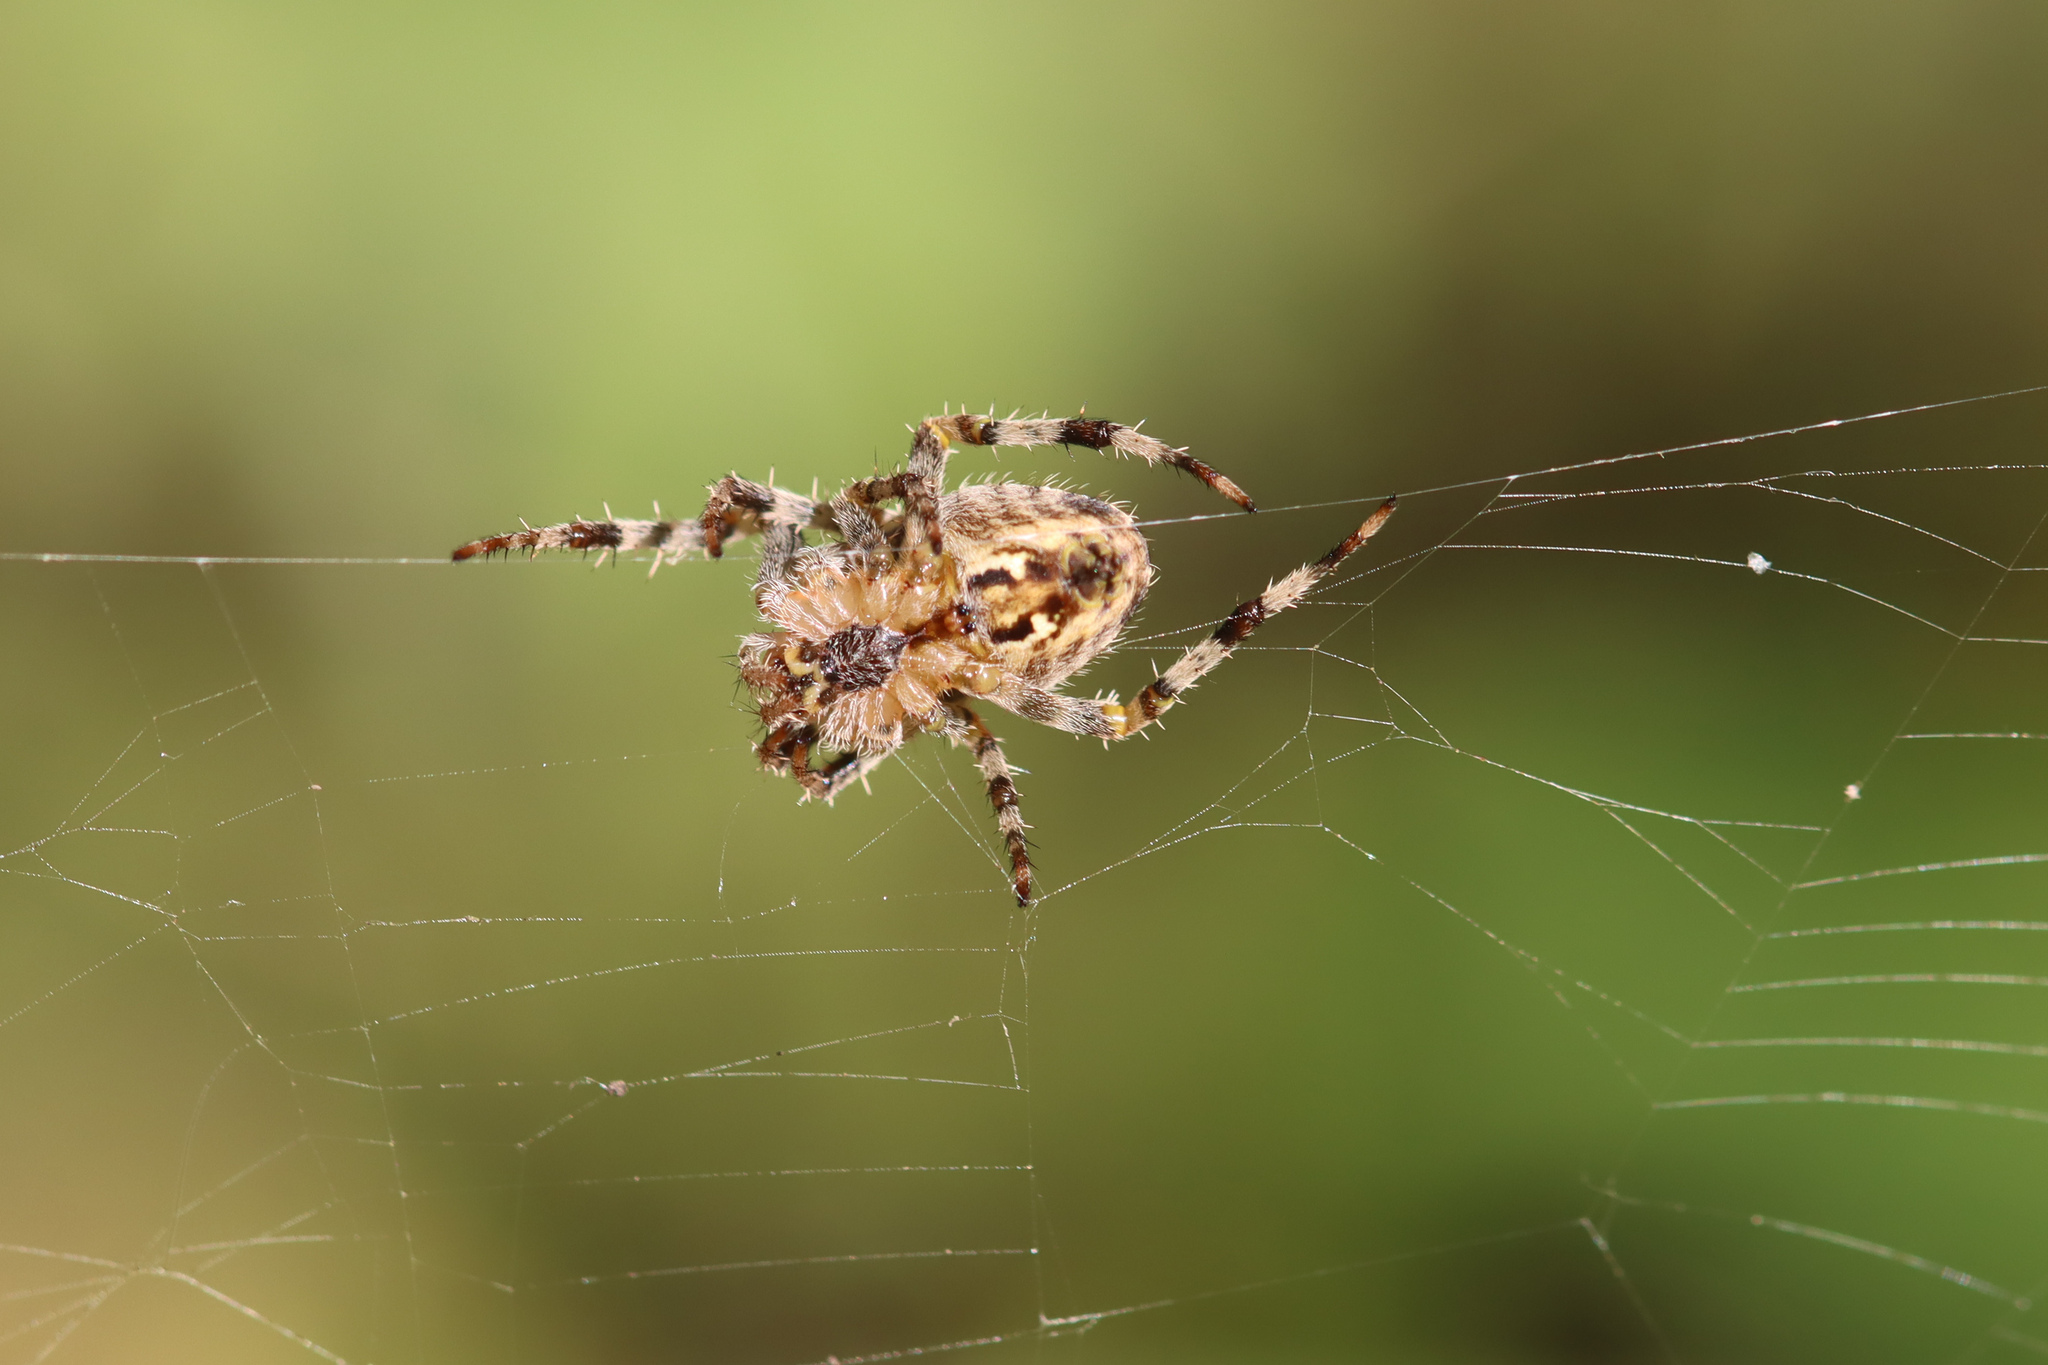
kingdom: Animalia
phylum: Arthropoda
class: Arachnida
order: Araneae
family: Araneidae
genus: Araneus
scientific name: Araneus diadematus
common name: Cross orbweaver
